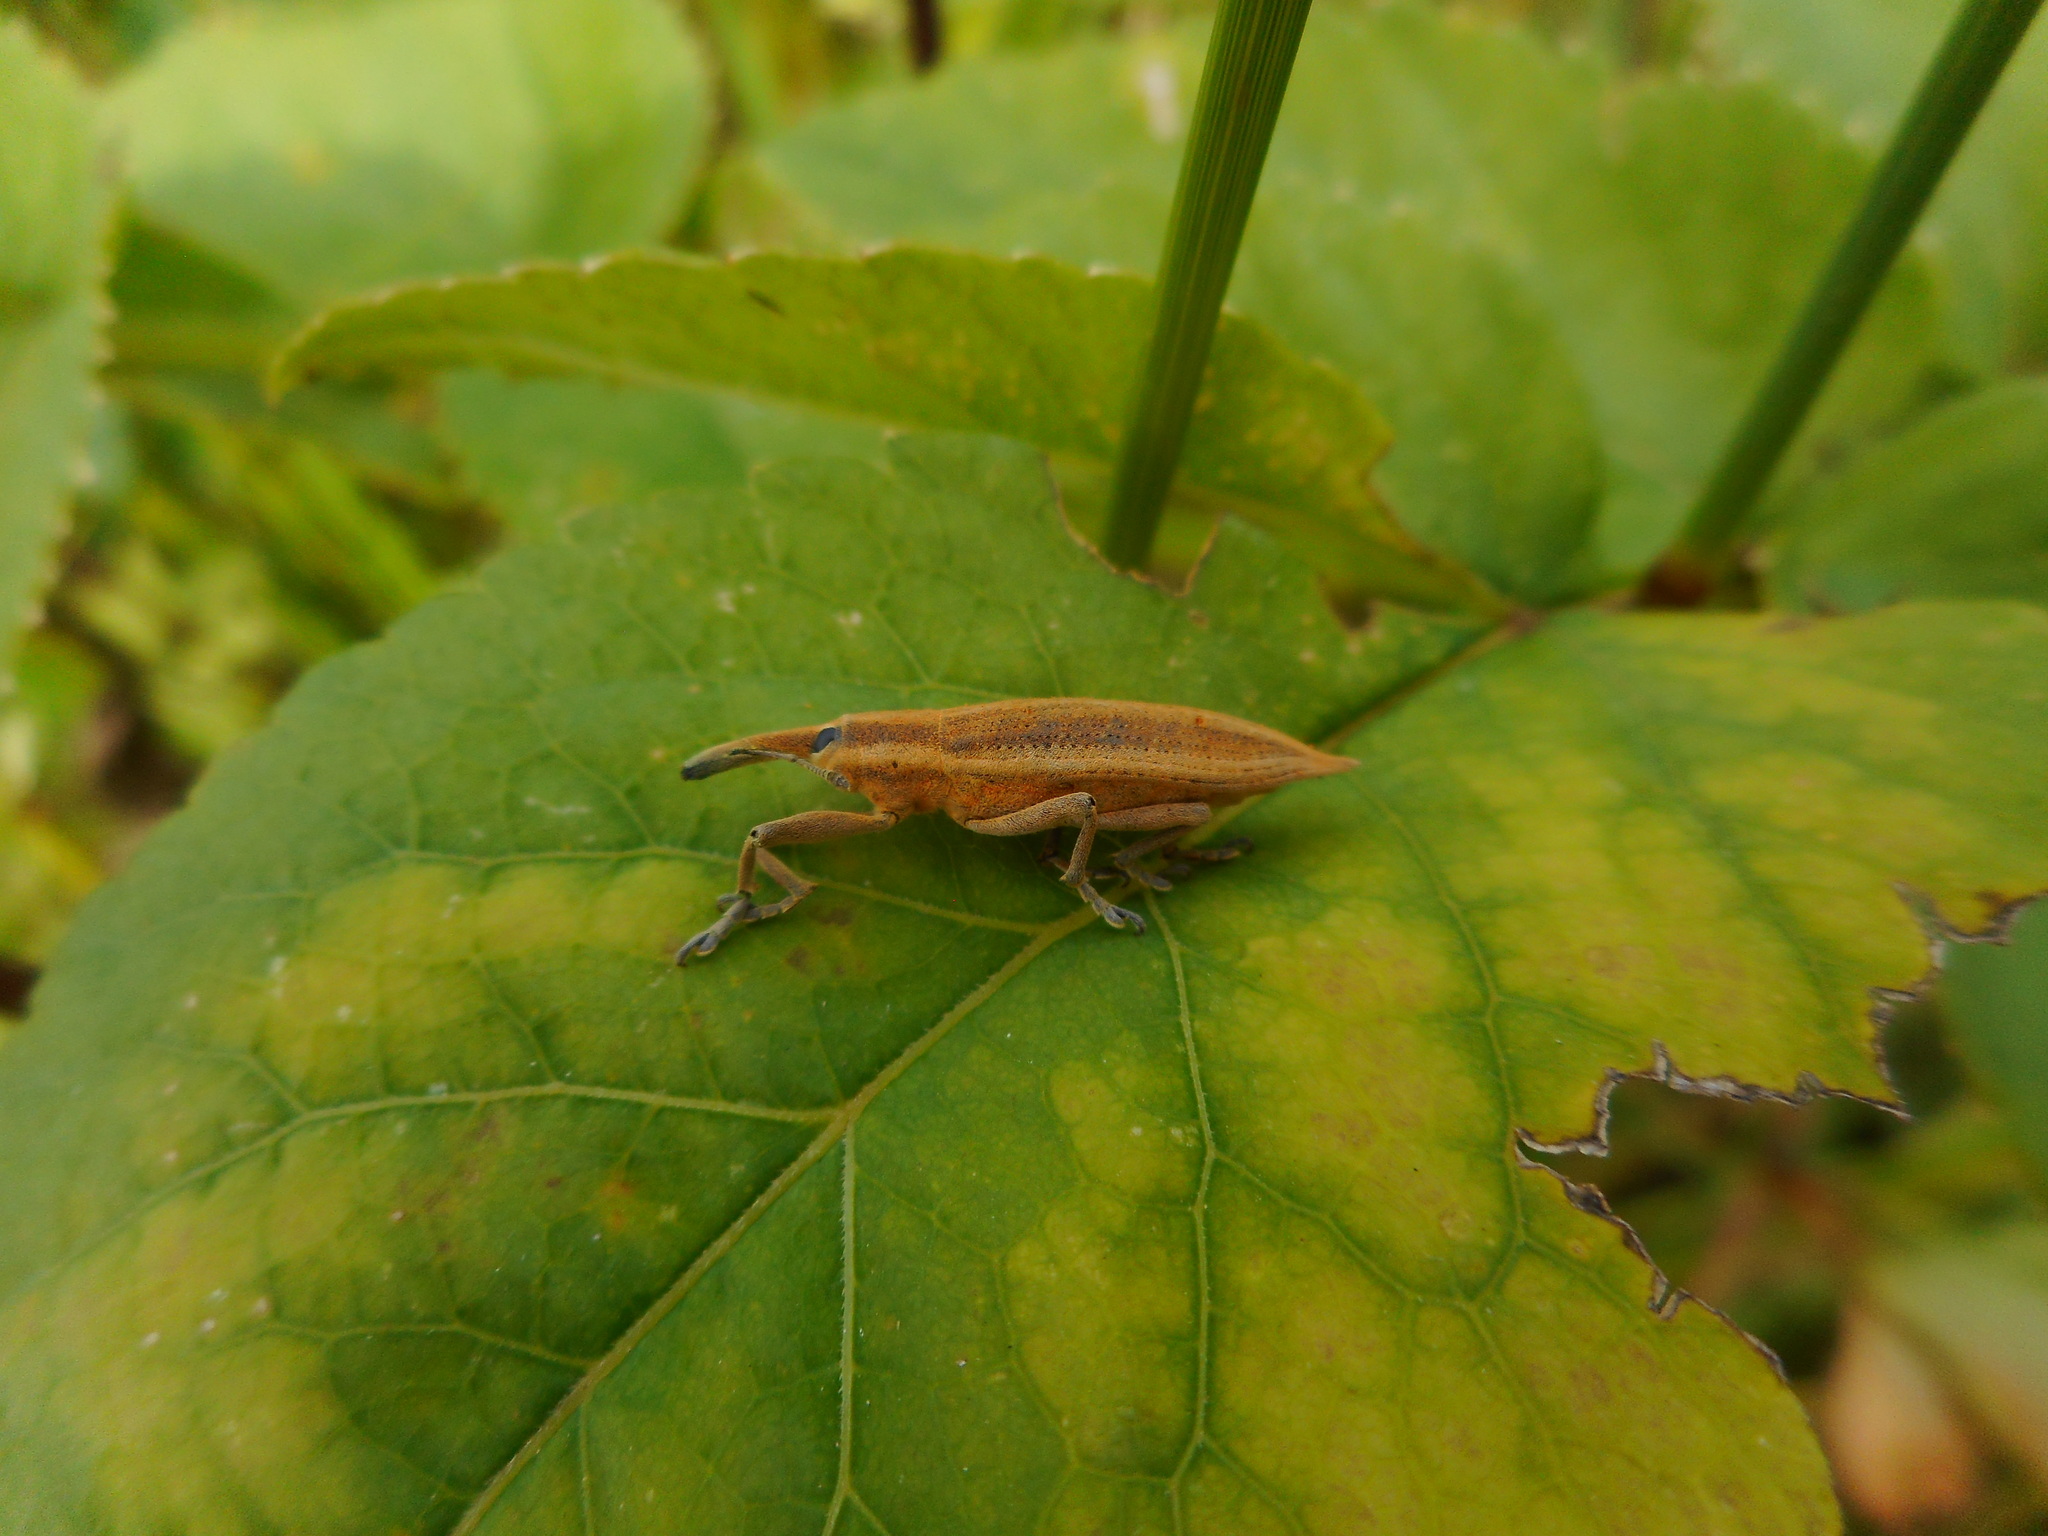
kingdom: Animalia
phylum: Arthropoda
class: Insecta
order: Coleoptera
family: Curculionidae
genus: Lixus
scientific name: Lixus iridis
